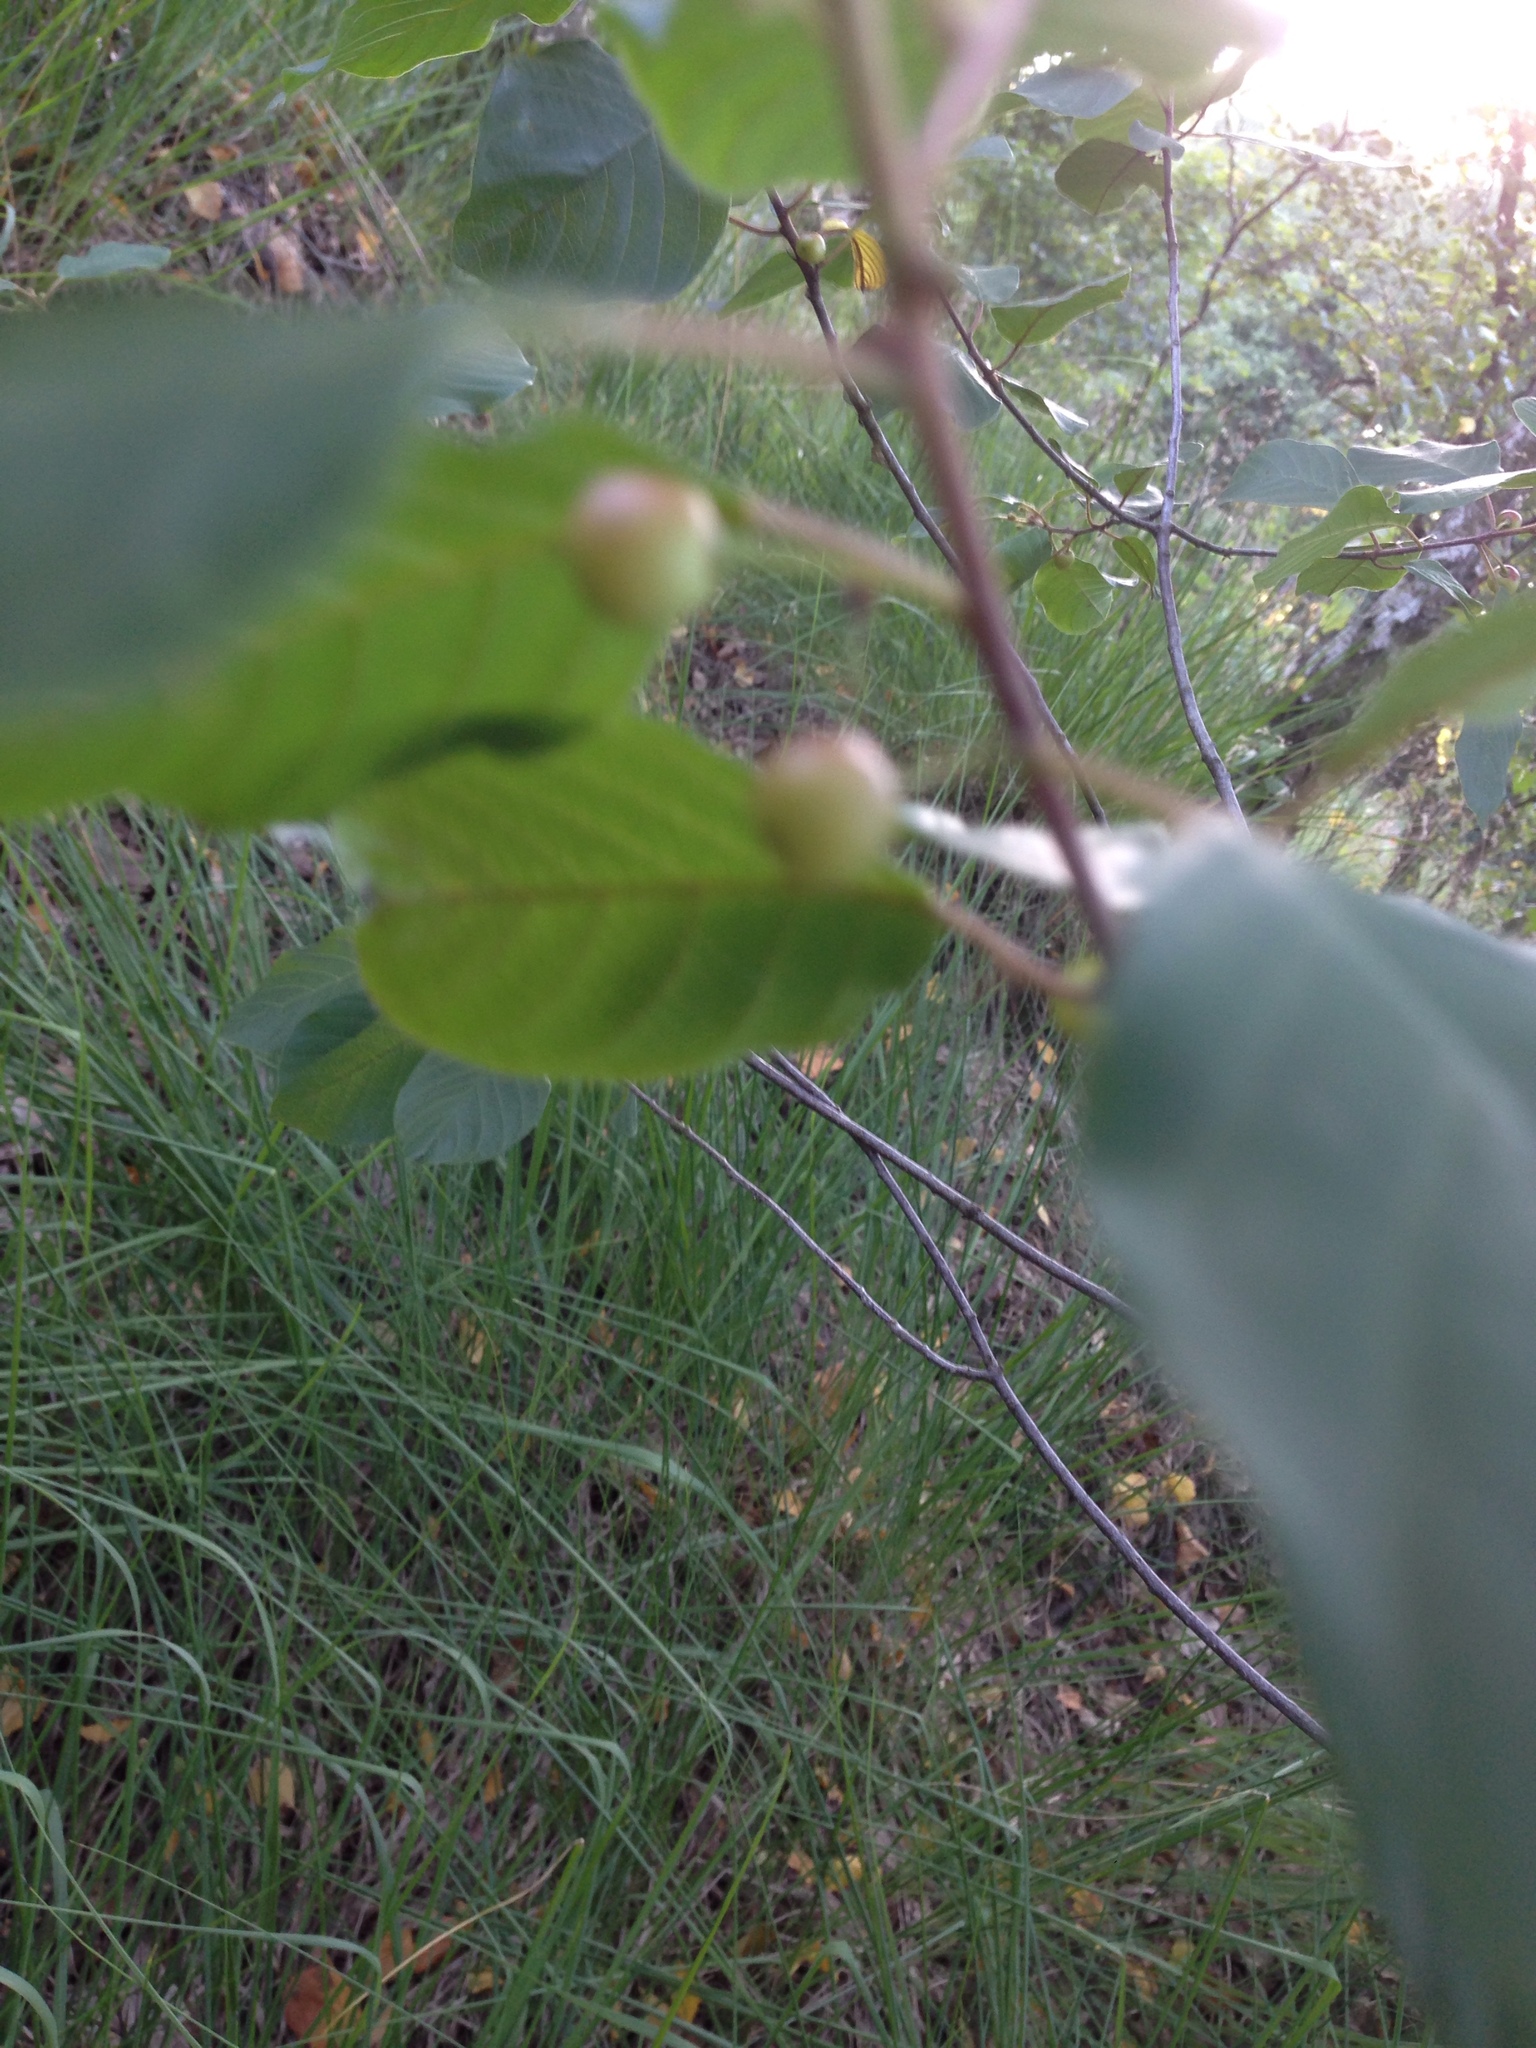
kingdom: Plantae
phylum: Tracheophyta
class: Magnoliopsida
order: Rosales
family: Rhamnaceae
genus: Frangula
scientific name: Frangula alnus
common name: Alder buckthorn
